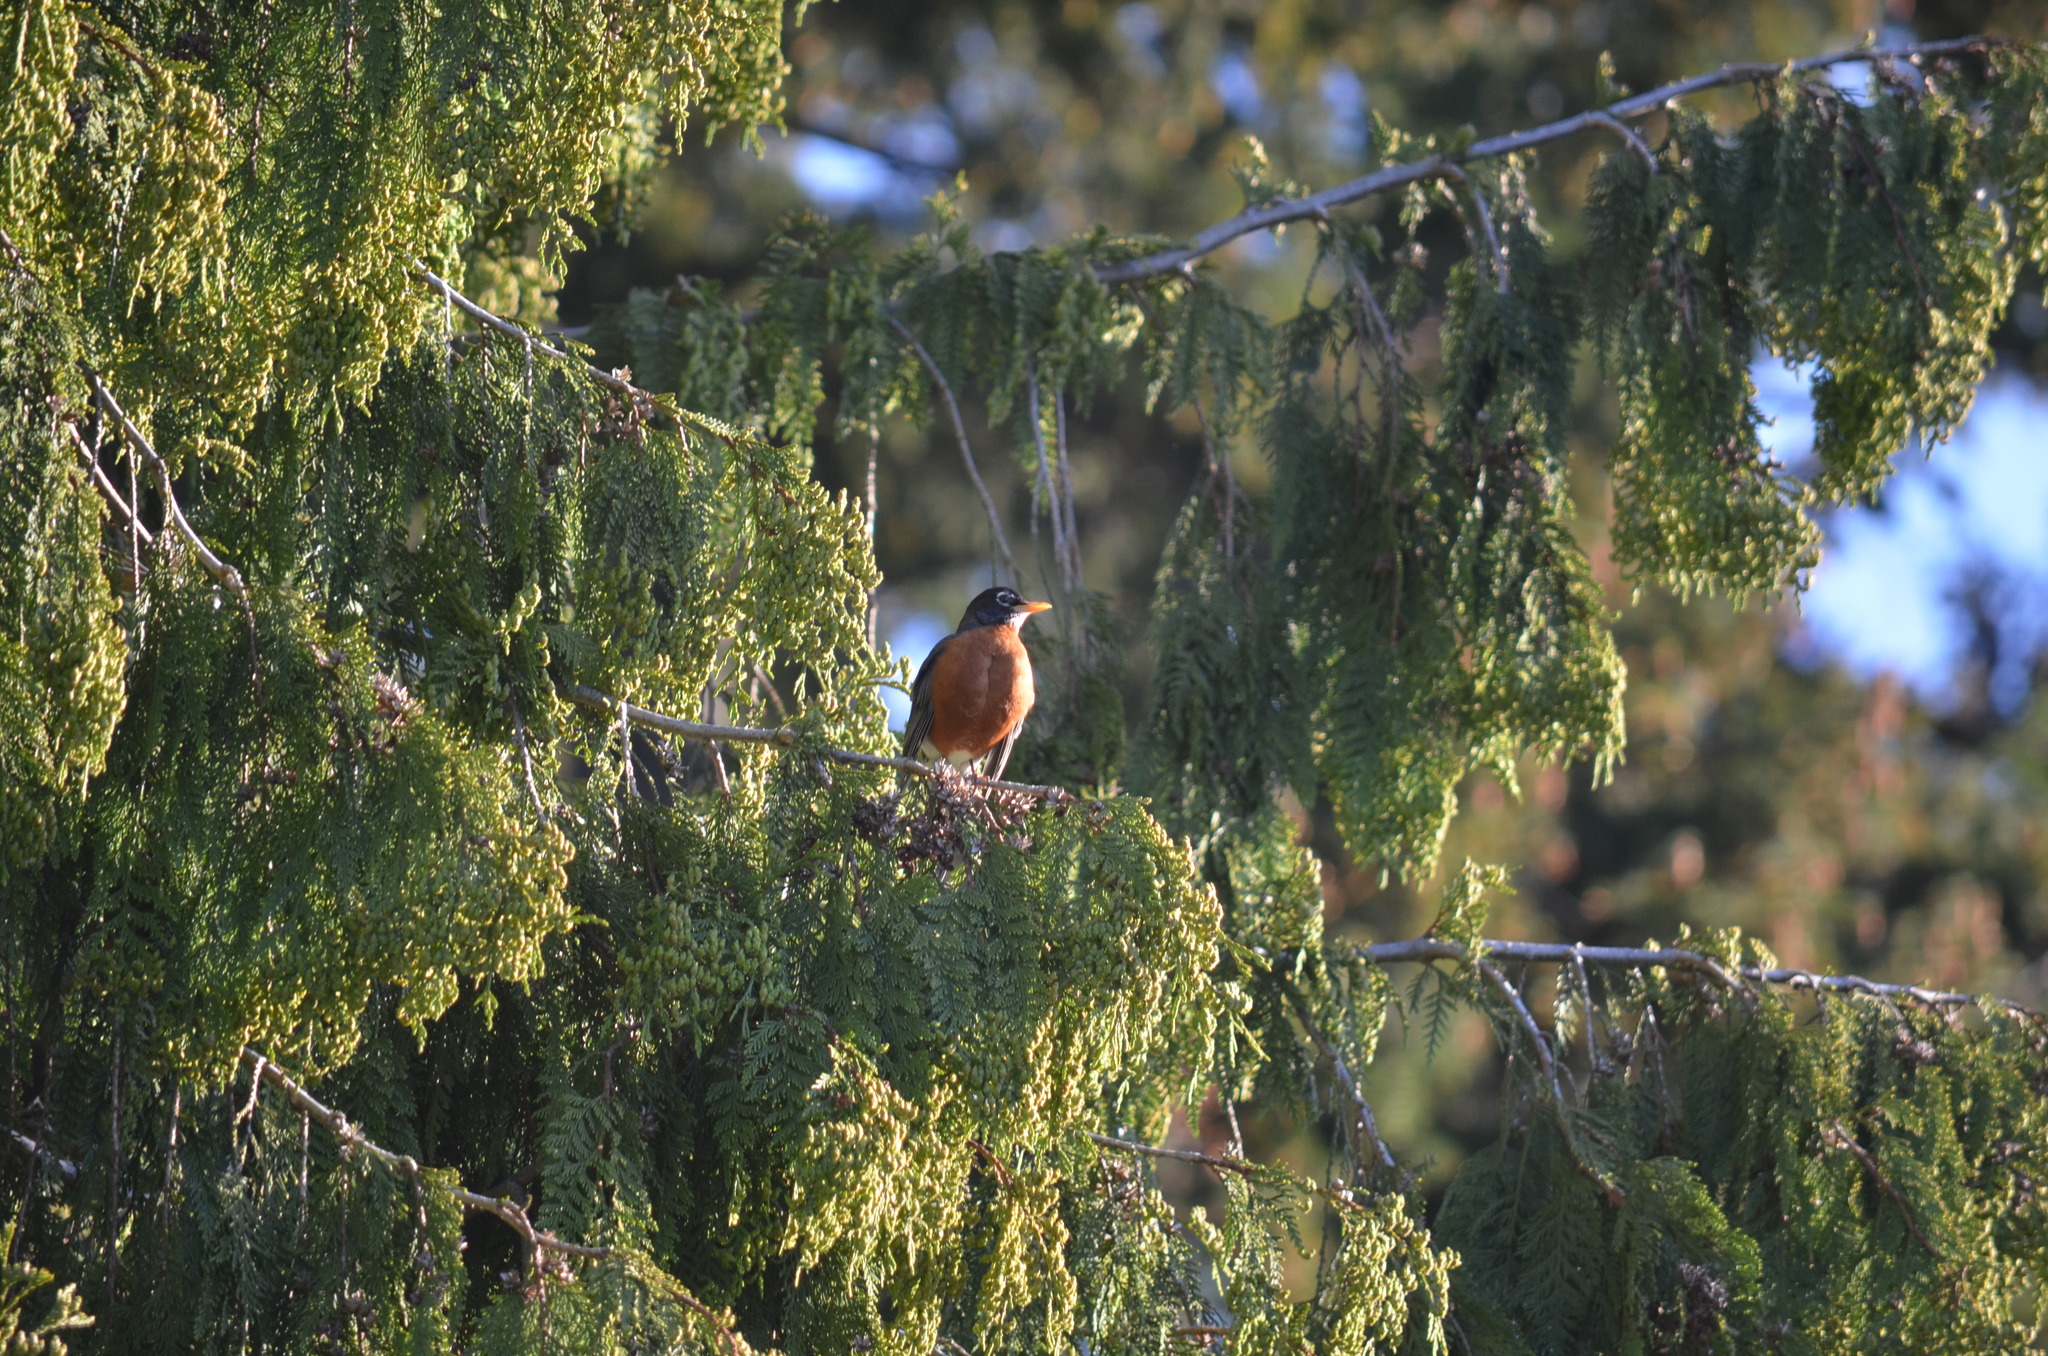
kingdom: Animalia
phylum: Chordata
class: Aves
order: Passeriformes
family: Turdidae
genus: Turdus
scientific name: Turdus migratorius
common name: American robin
